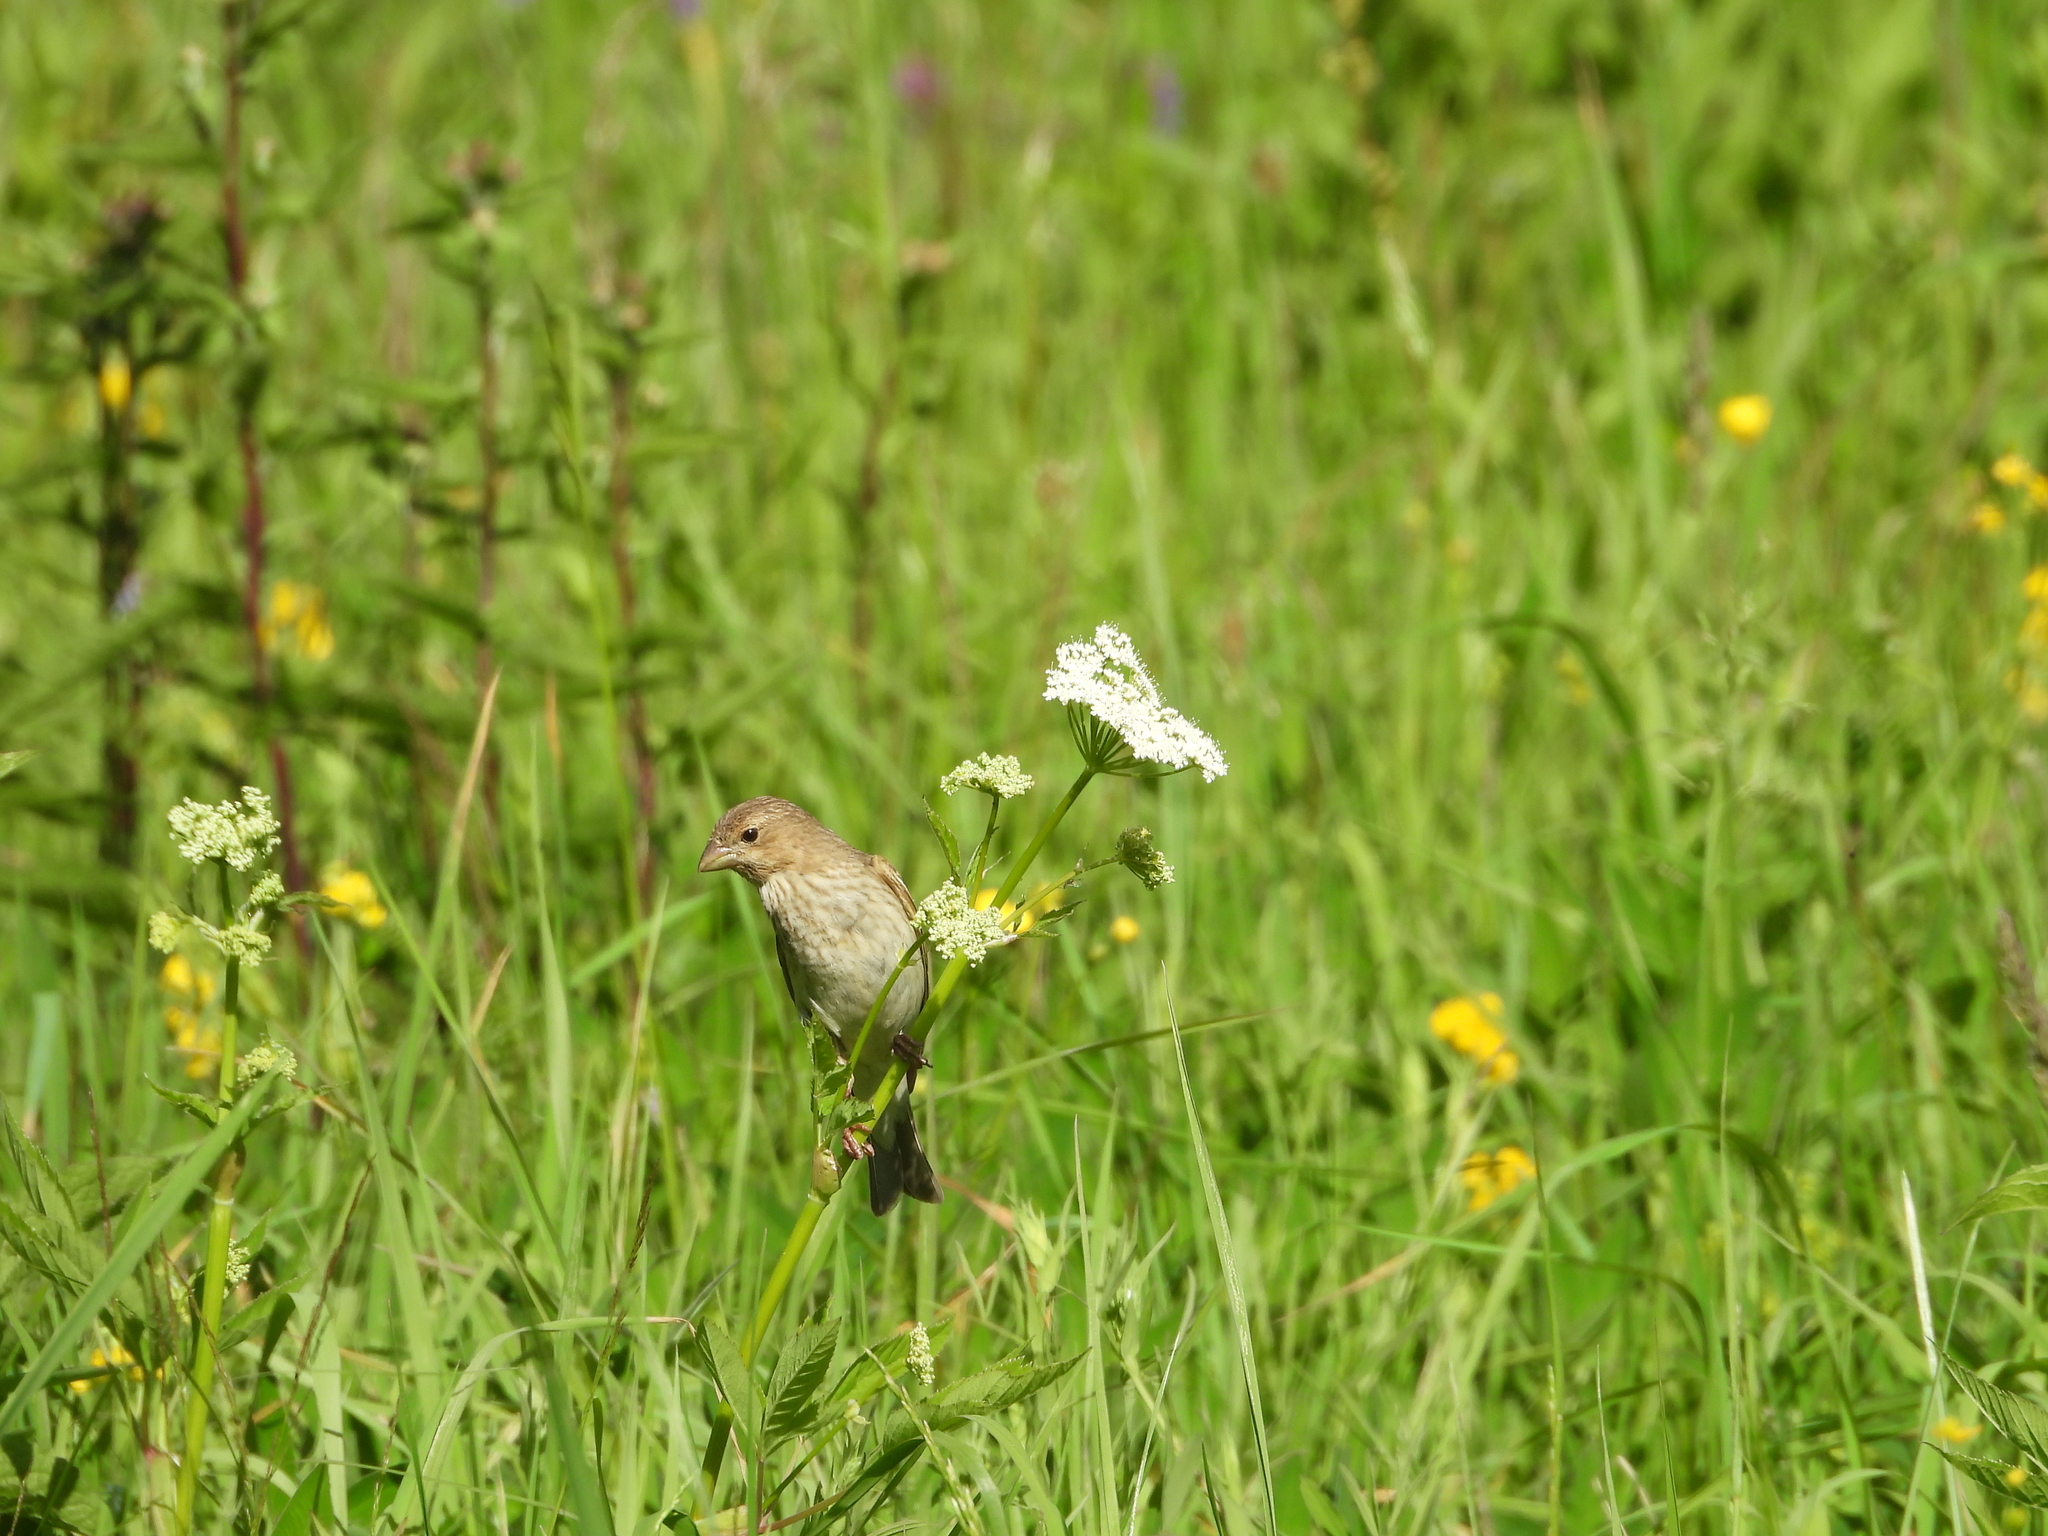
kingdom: Animalia
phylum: Chordata
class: Aves
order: Passeriformes
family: Fringillidae
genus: Carpodacus
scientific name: Carpodacus erythrinus
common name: Common rosefinch
